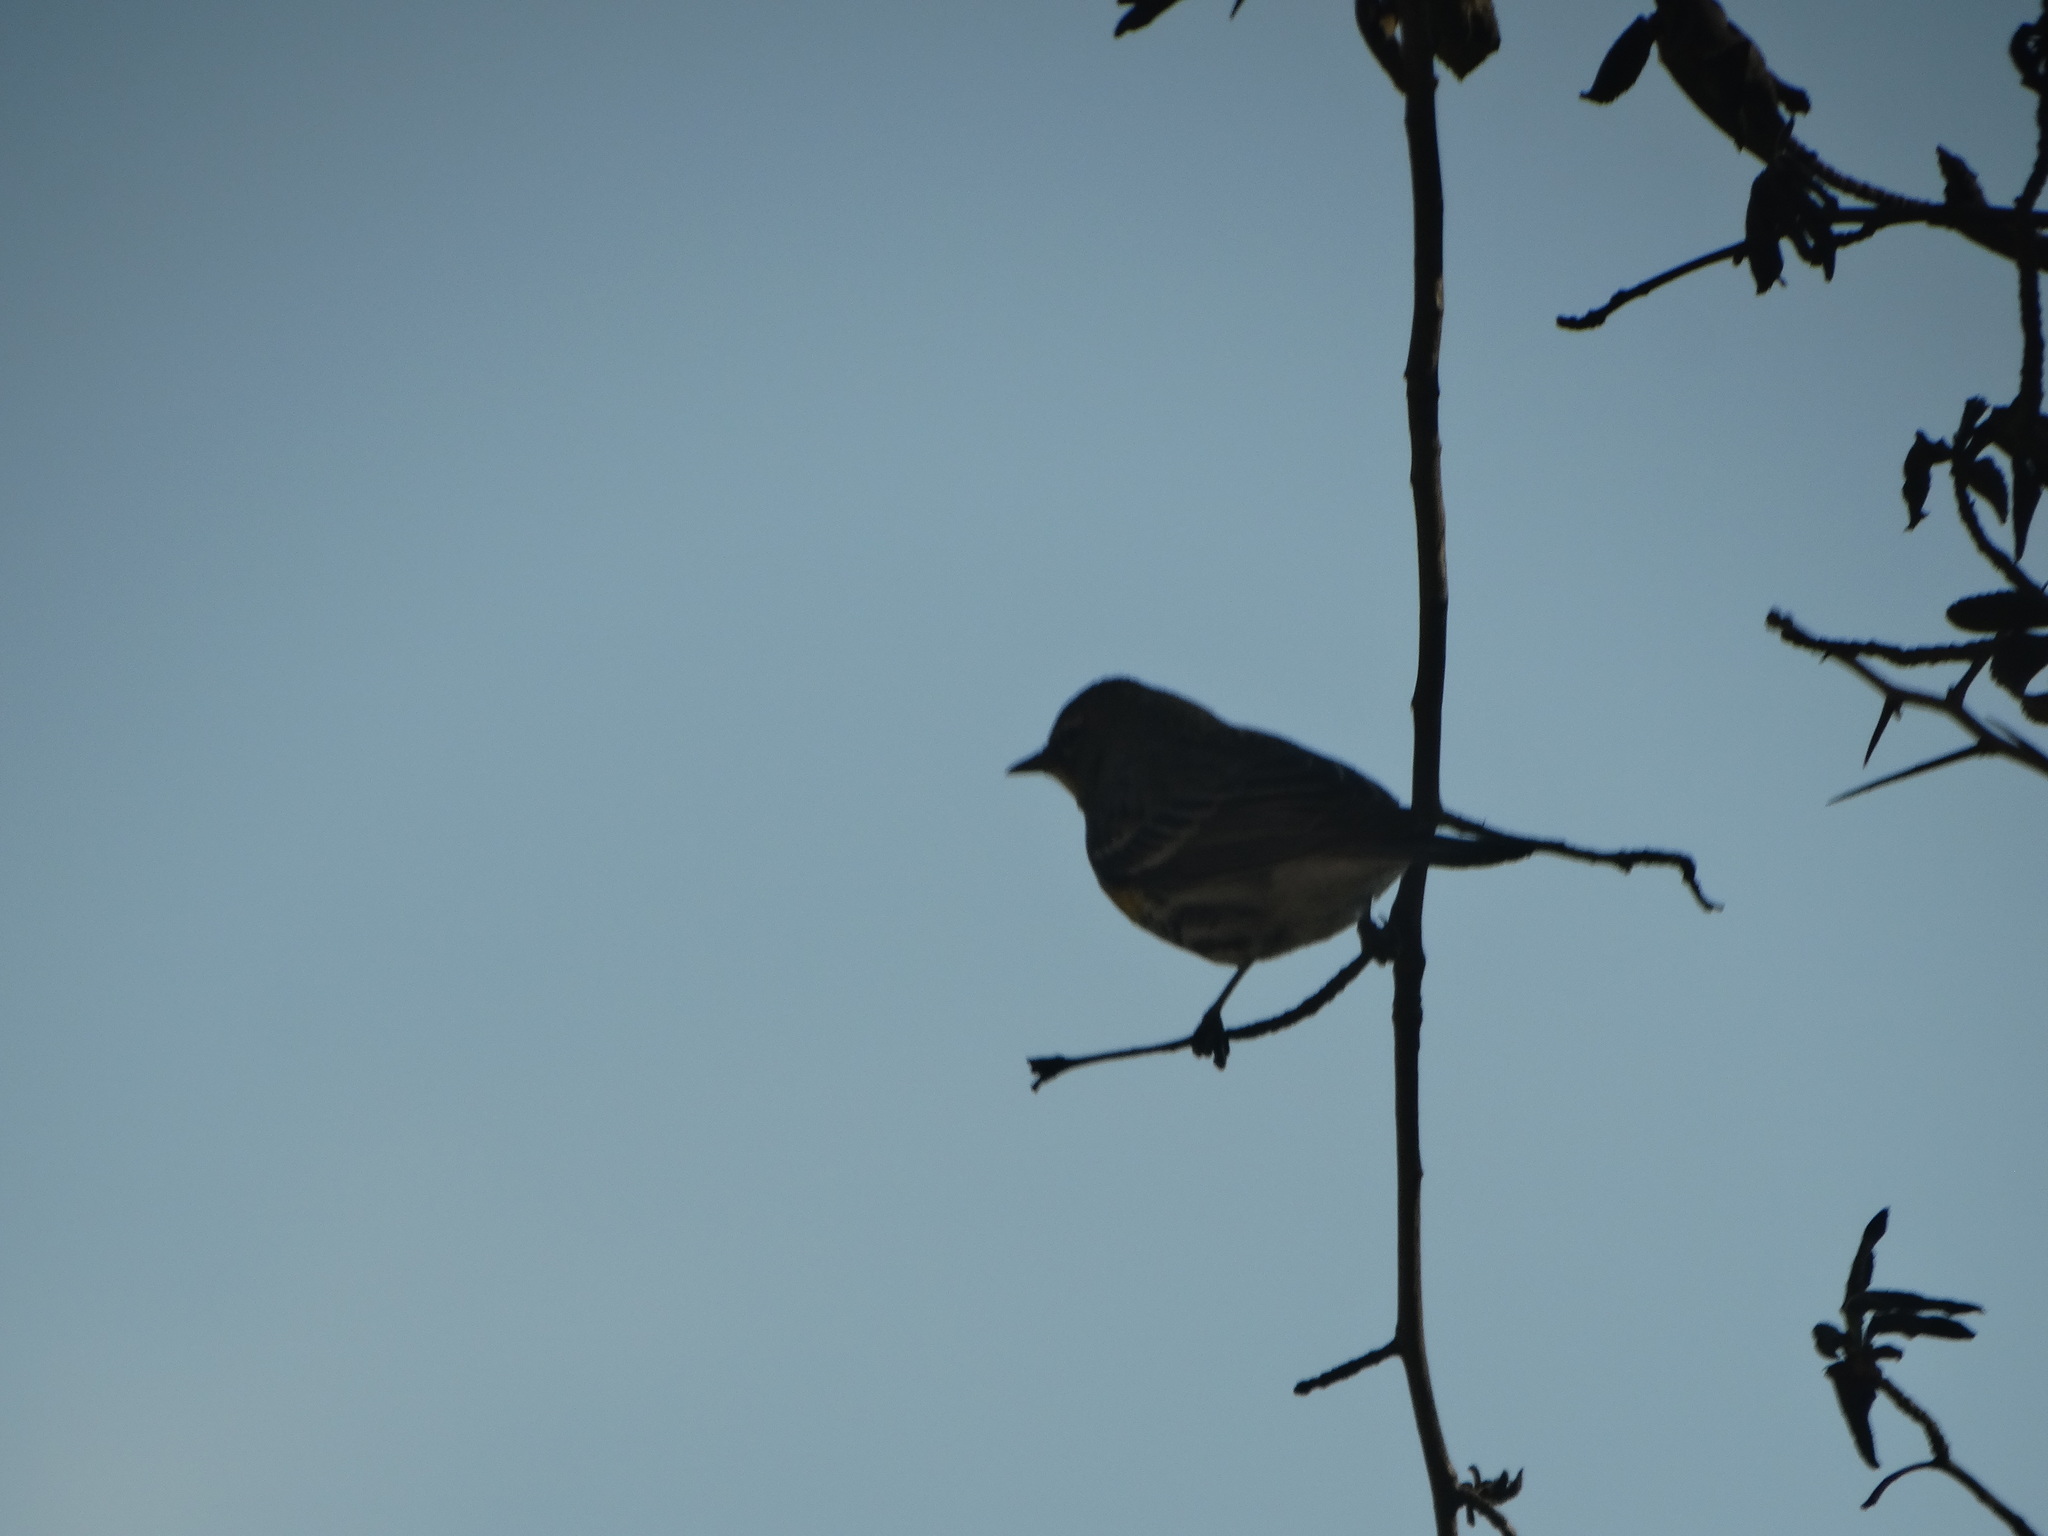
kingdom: Animalia
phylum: Chordata
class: Aves
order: Passeriformes
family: Parulidae
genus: Setophaga
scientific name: Setophaga coronata
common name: Myrtle warbler
